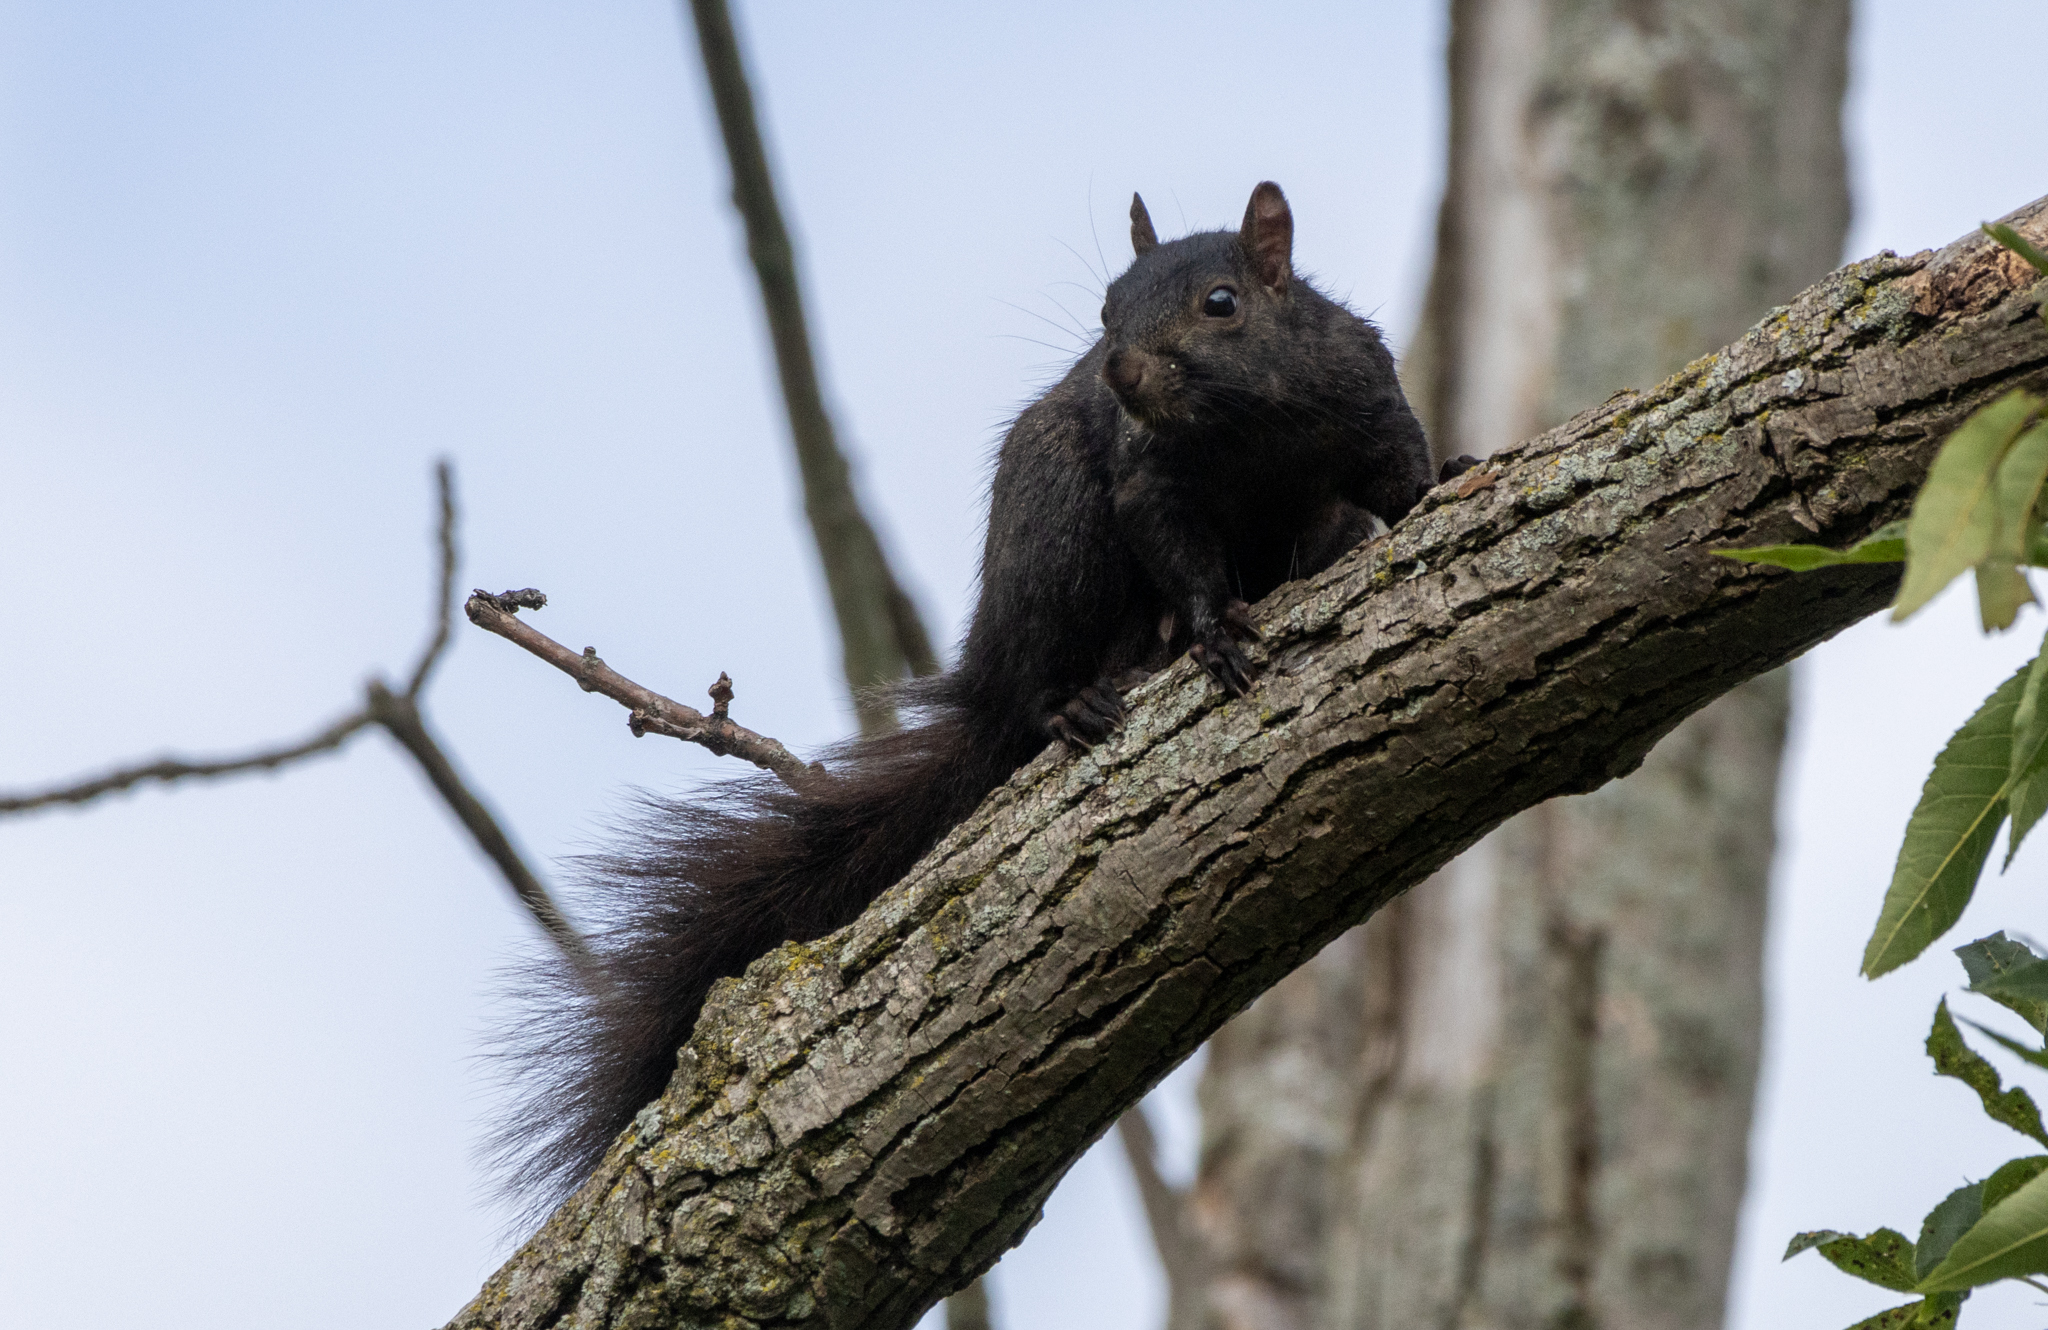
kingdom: Animalia
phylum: Chordata
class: Mammalia
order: Rodentia
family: Sciuridae
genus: Sciurus
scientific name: Sciurus carolinensis
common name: Eastern gray squirrel
